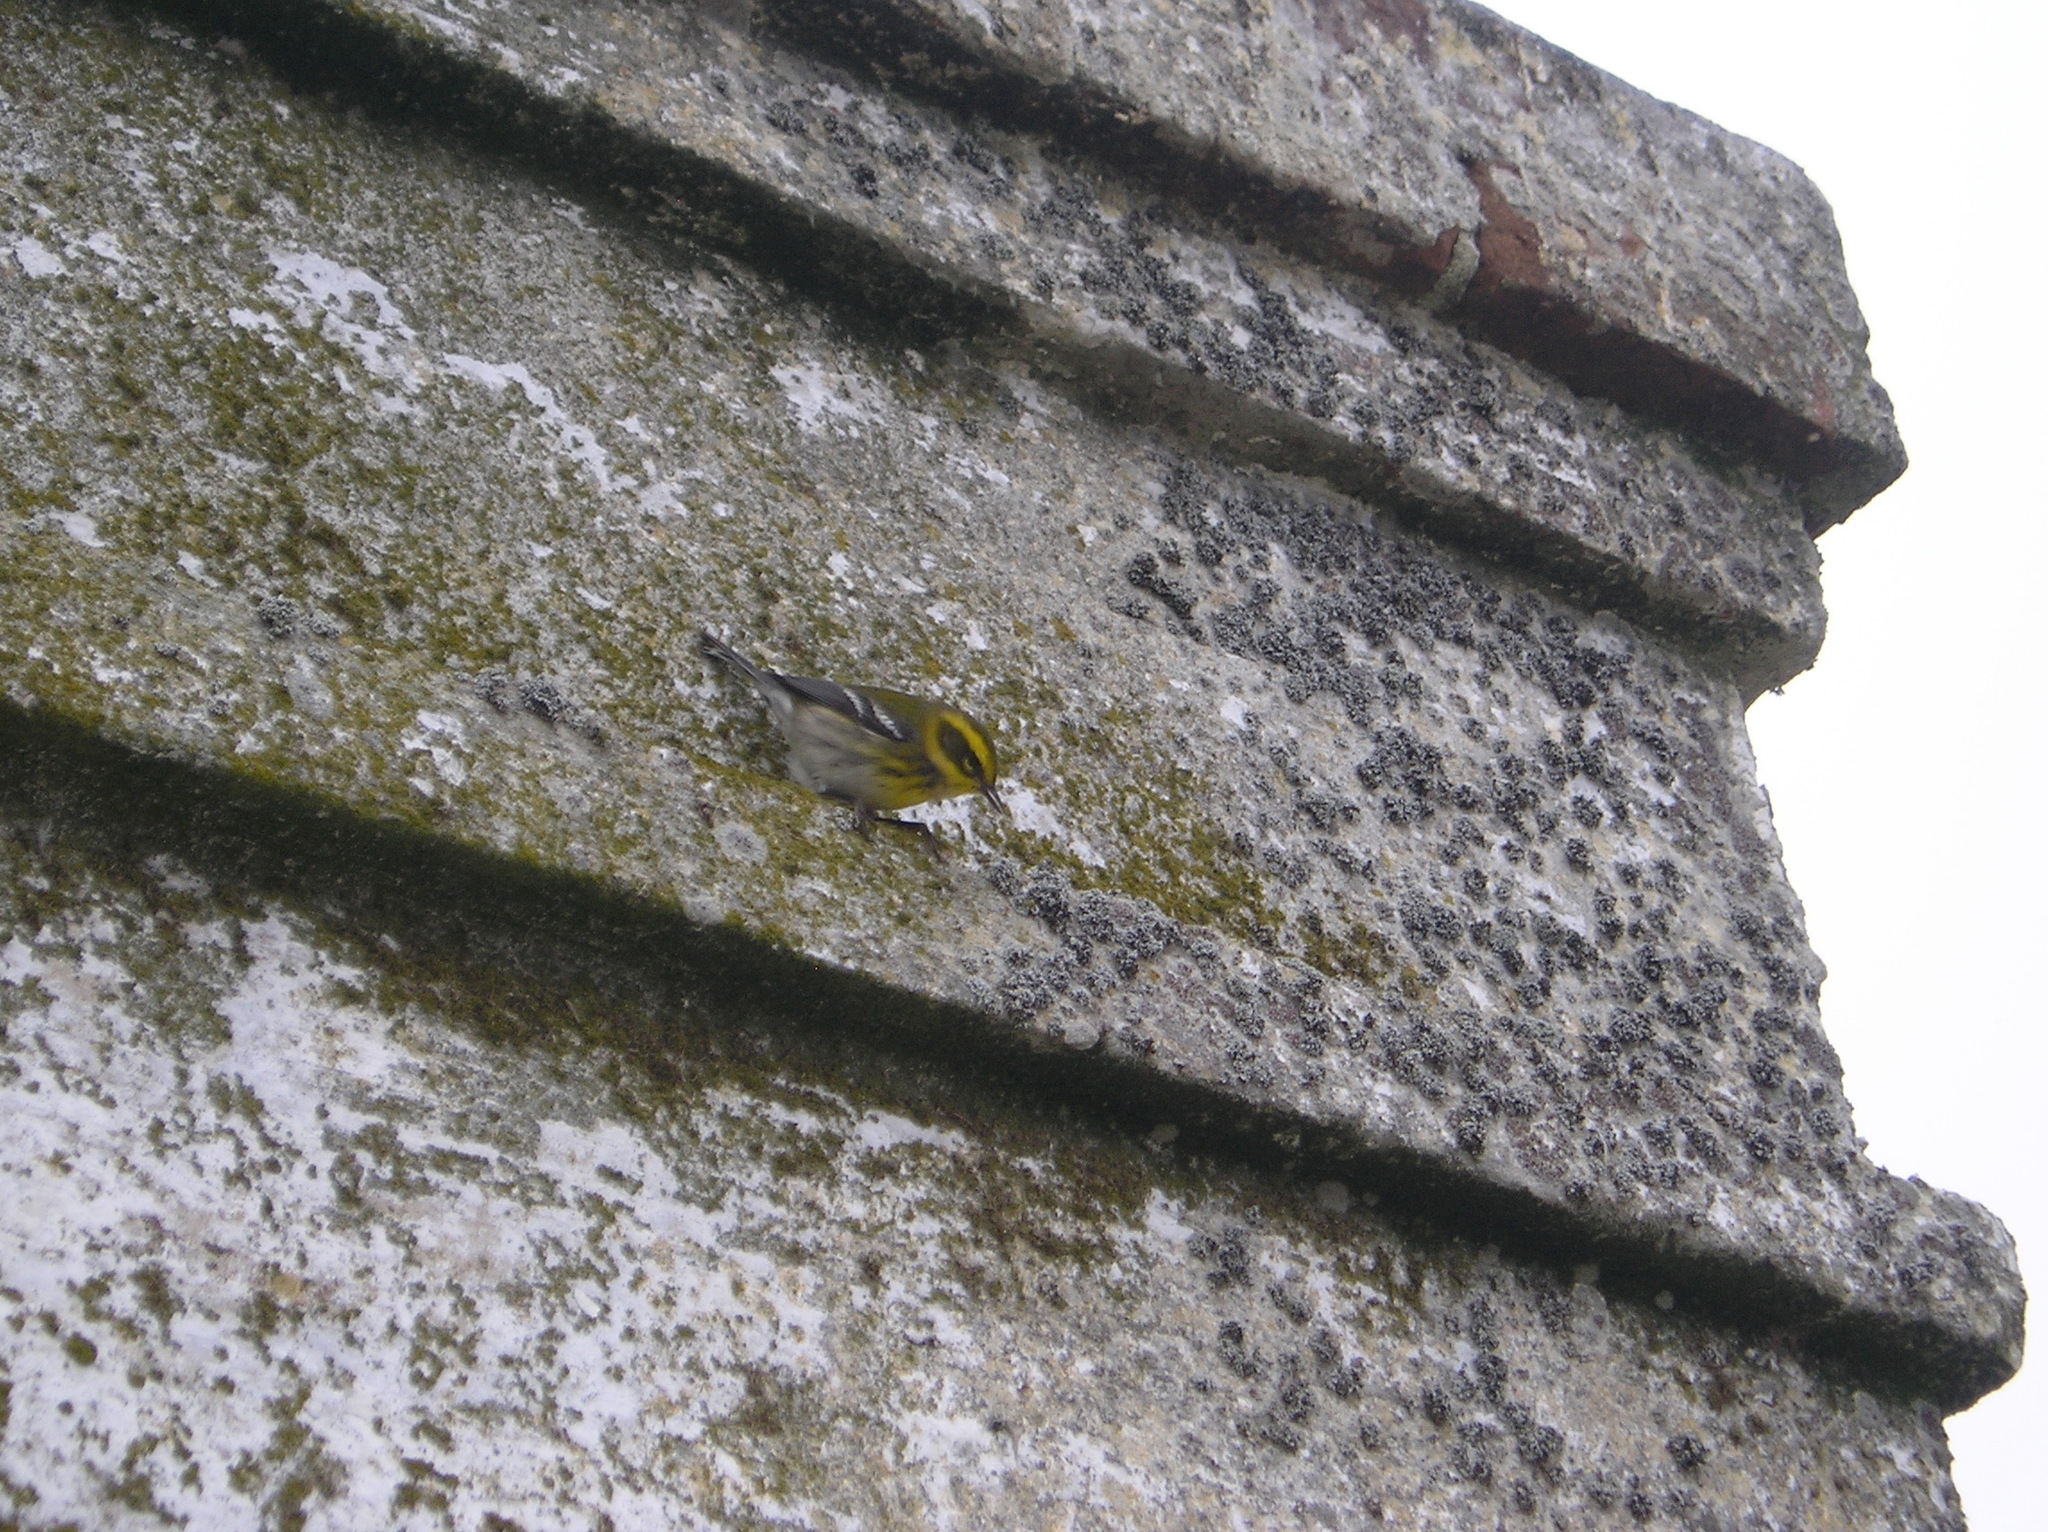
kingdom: Animalia
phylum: Chordata
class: Aves
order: Passeriformes
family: Parulidae
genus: Setophaga
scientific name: Setophaga townsendi
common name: Townsend's warbler
